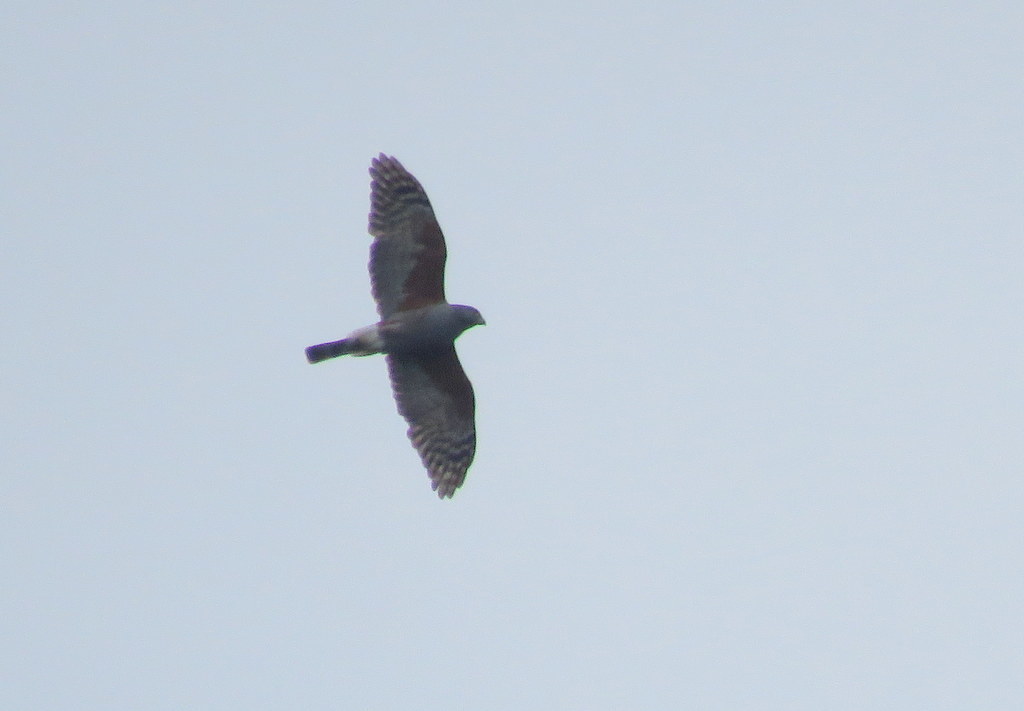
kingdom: Animalia
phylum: Chordata
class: Aves
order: Accipitriformes
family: Accipitridae
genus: Harpagus
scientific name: Harpagus diodon
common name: Rufous-thighed kite
